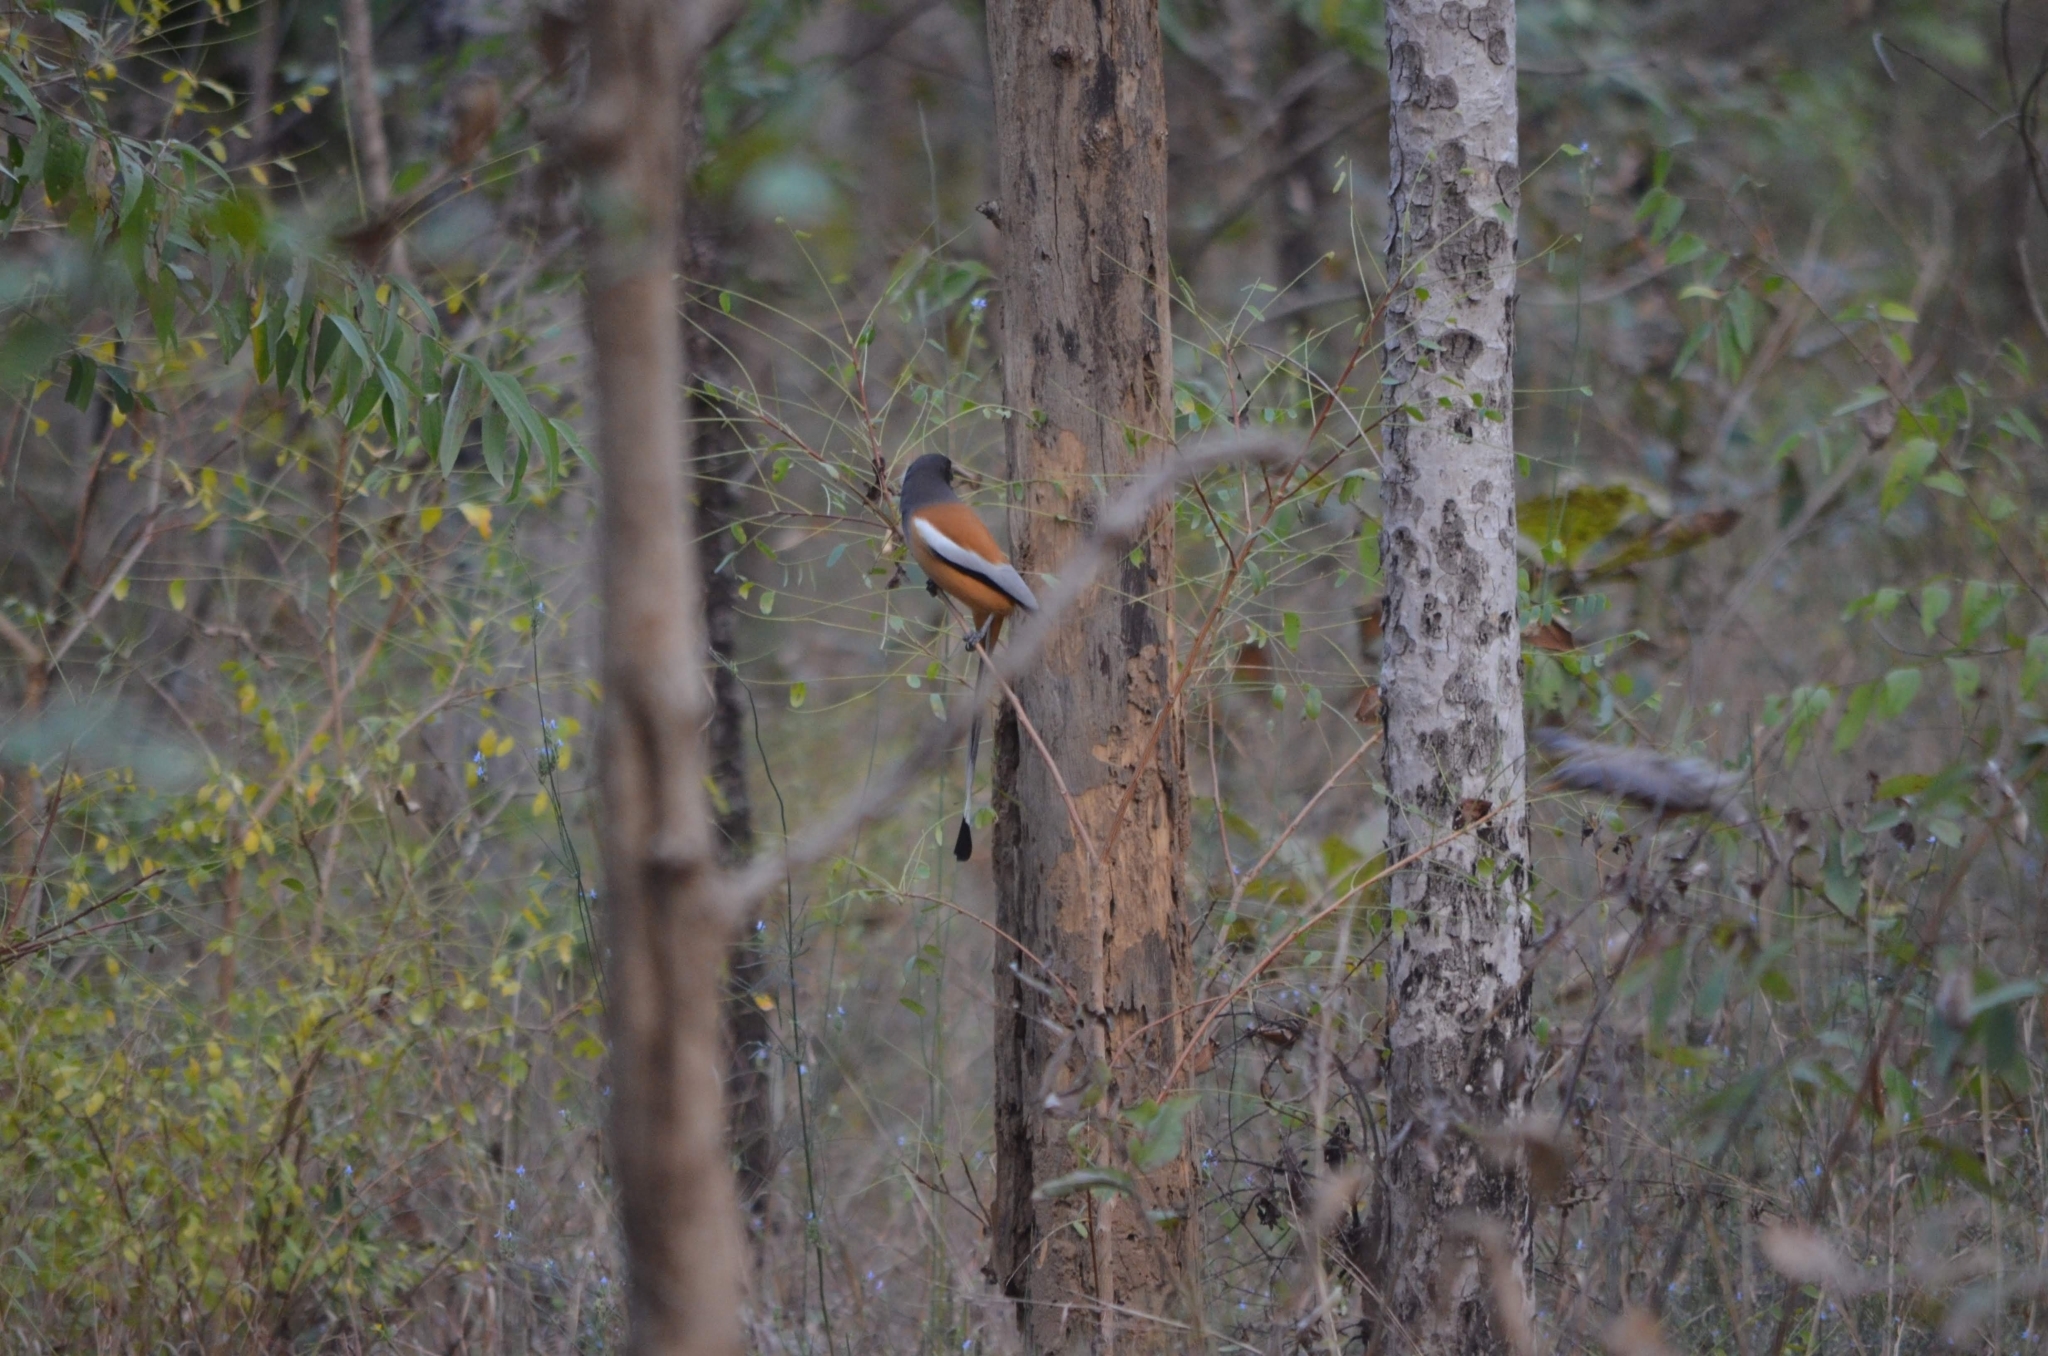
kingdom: Animalia
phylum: Chordata
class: Aves
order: Passeriformes
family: Corvidae
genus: Dendrocitta
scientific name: Dendrocitta vagabunda
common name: Rufous treepie
